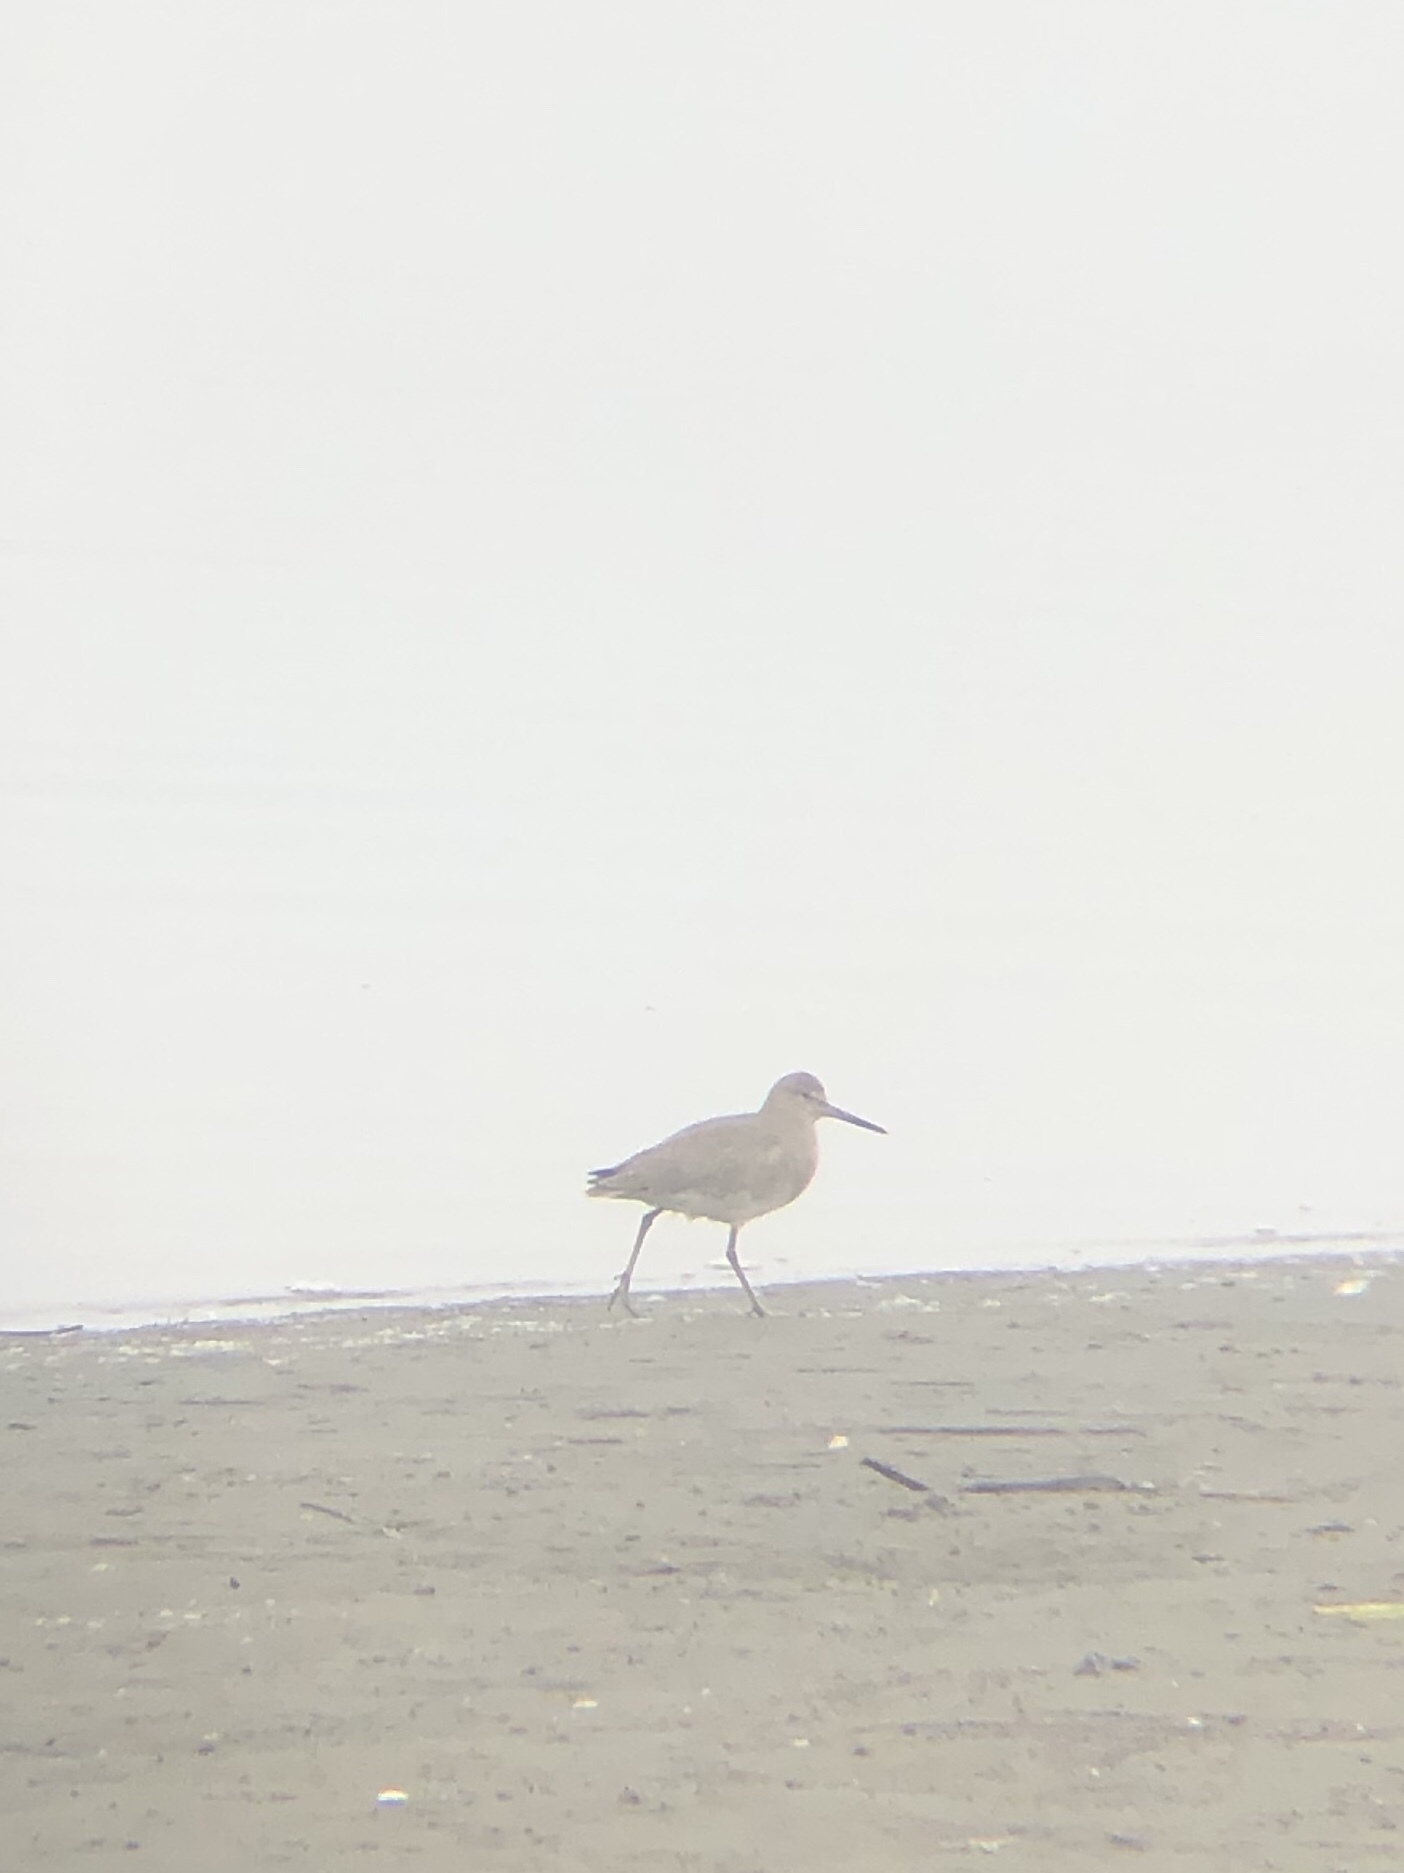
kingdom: Animalia
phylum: Chordata
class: Aves
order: Charadriiformes
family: Scolopacidae
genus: Tringa
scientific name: Tringa semipalmata
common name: Willet
